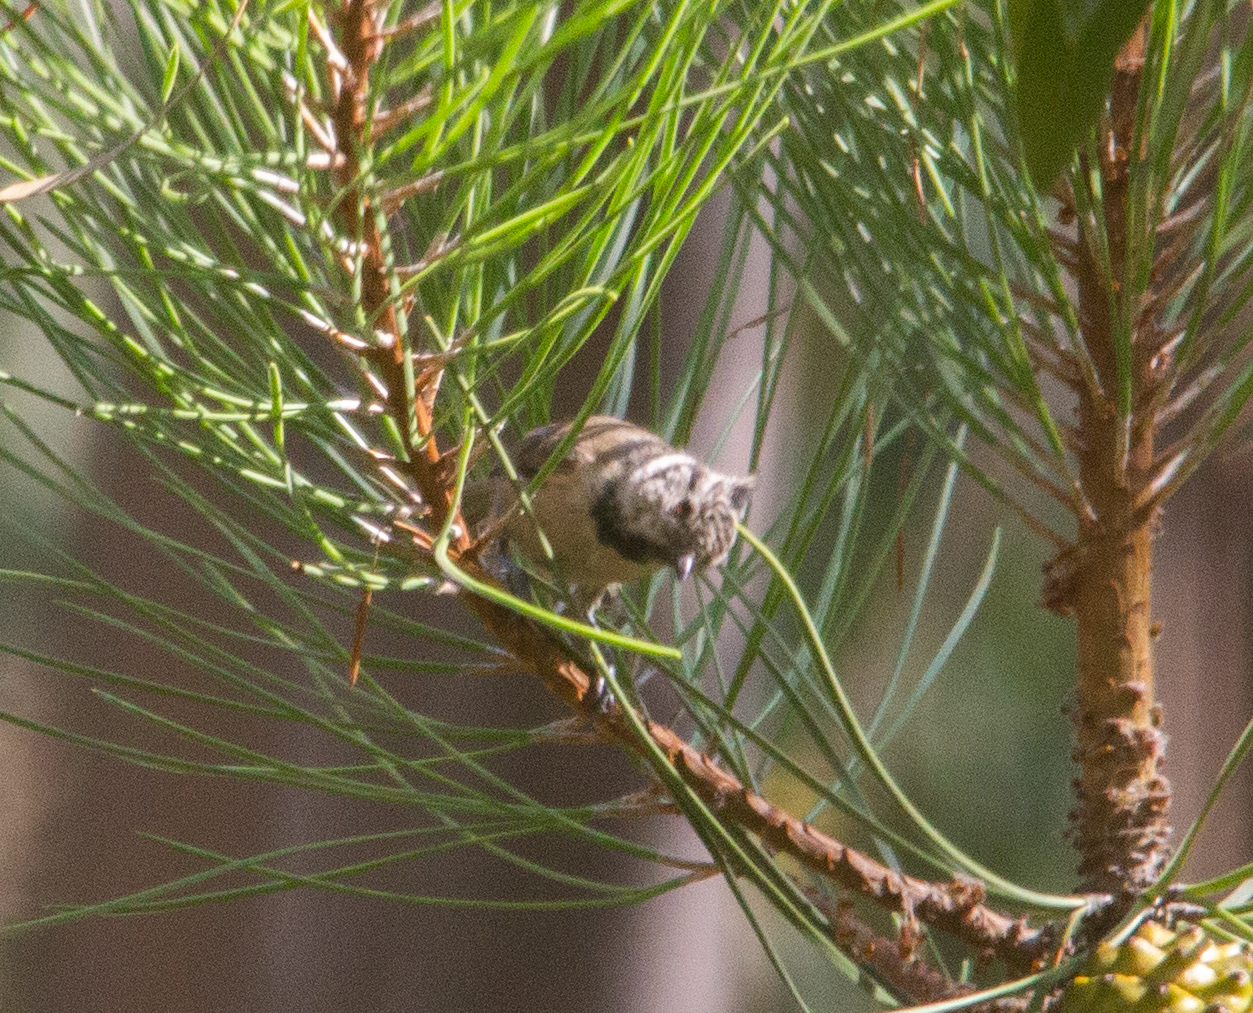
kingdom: Animalia
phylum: Chordata
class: Aves
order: Passeriformes
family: Paridae
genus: Lophophanes
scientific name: Lophophanes cristatus
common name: European crested tit
